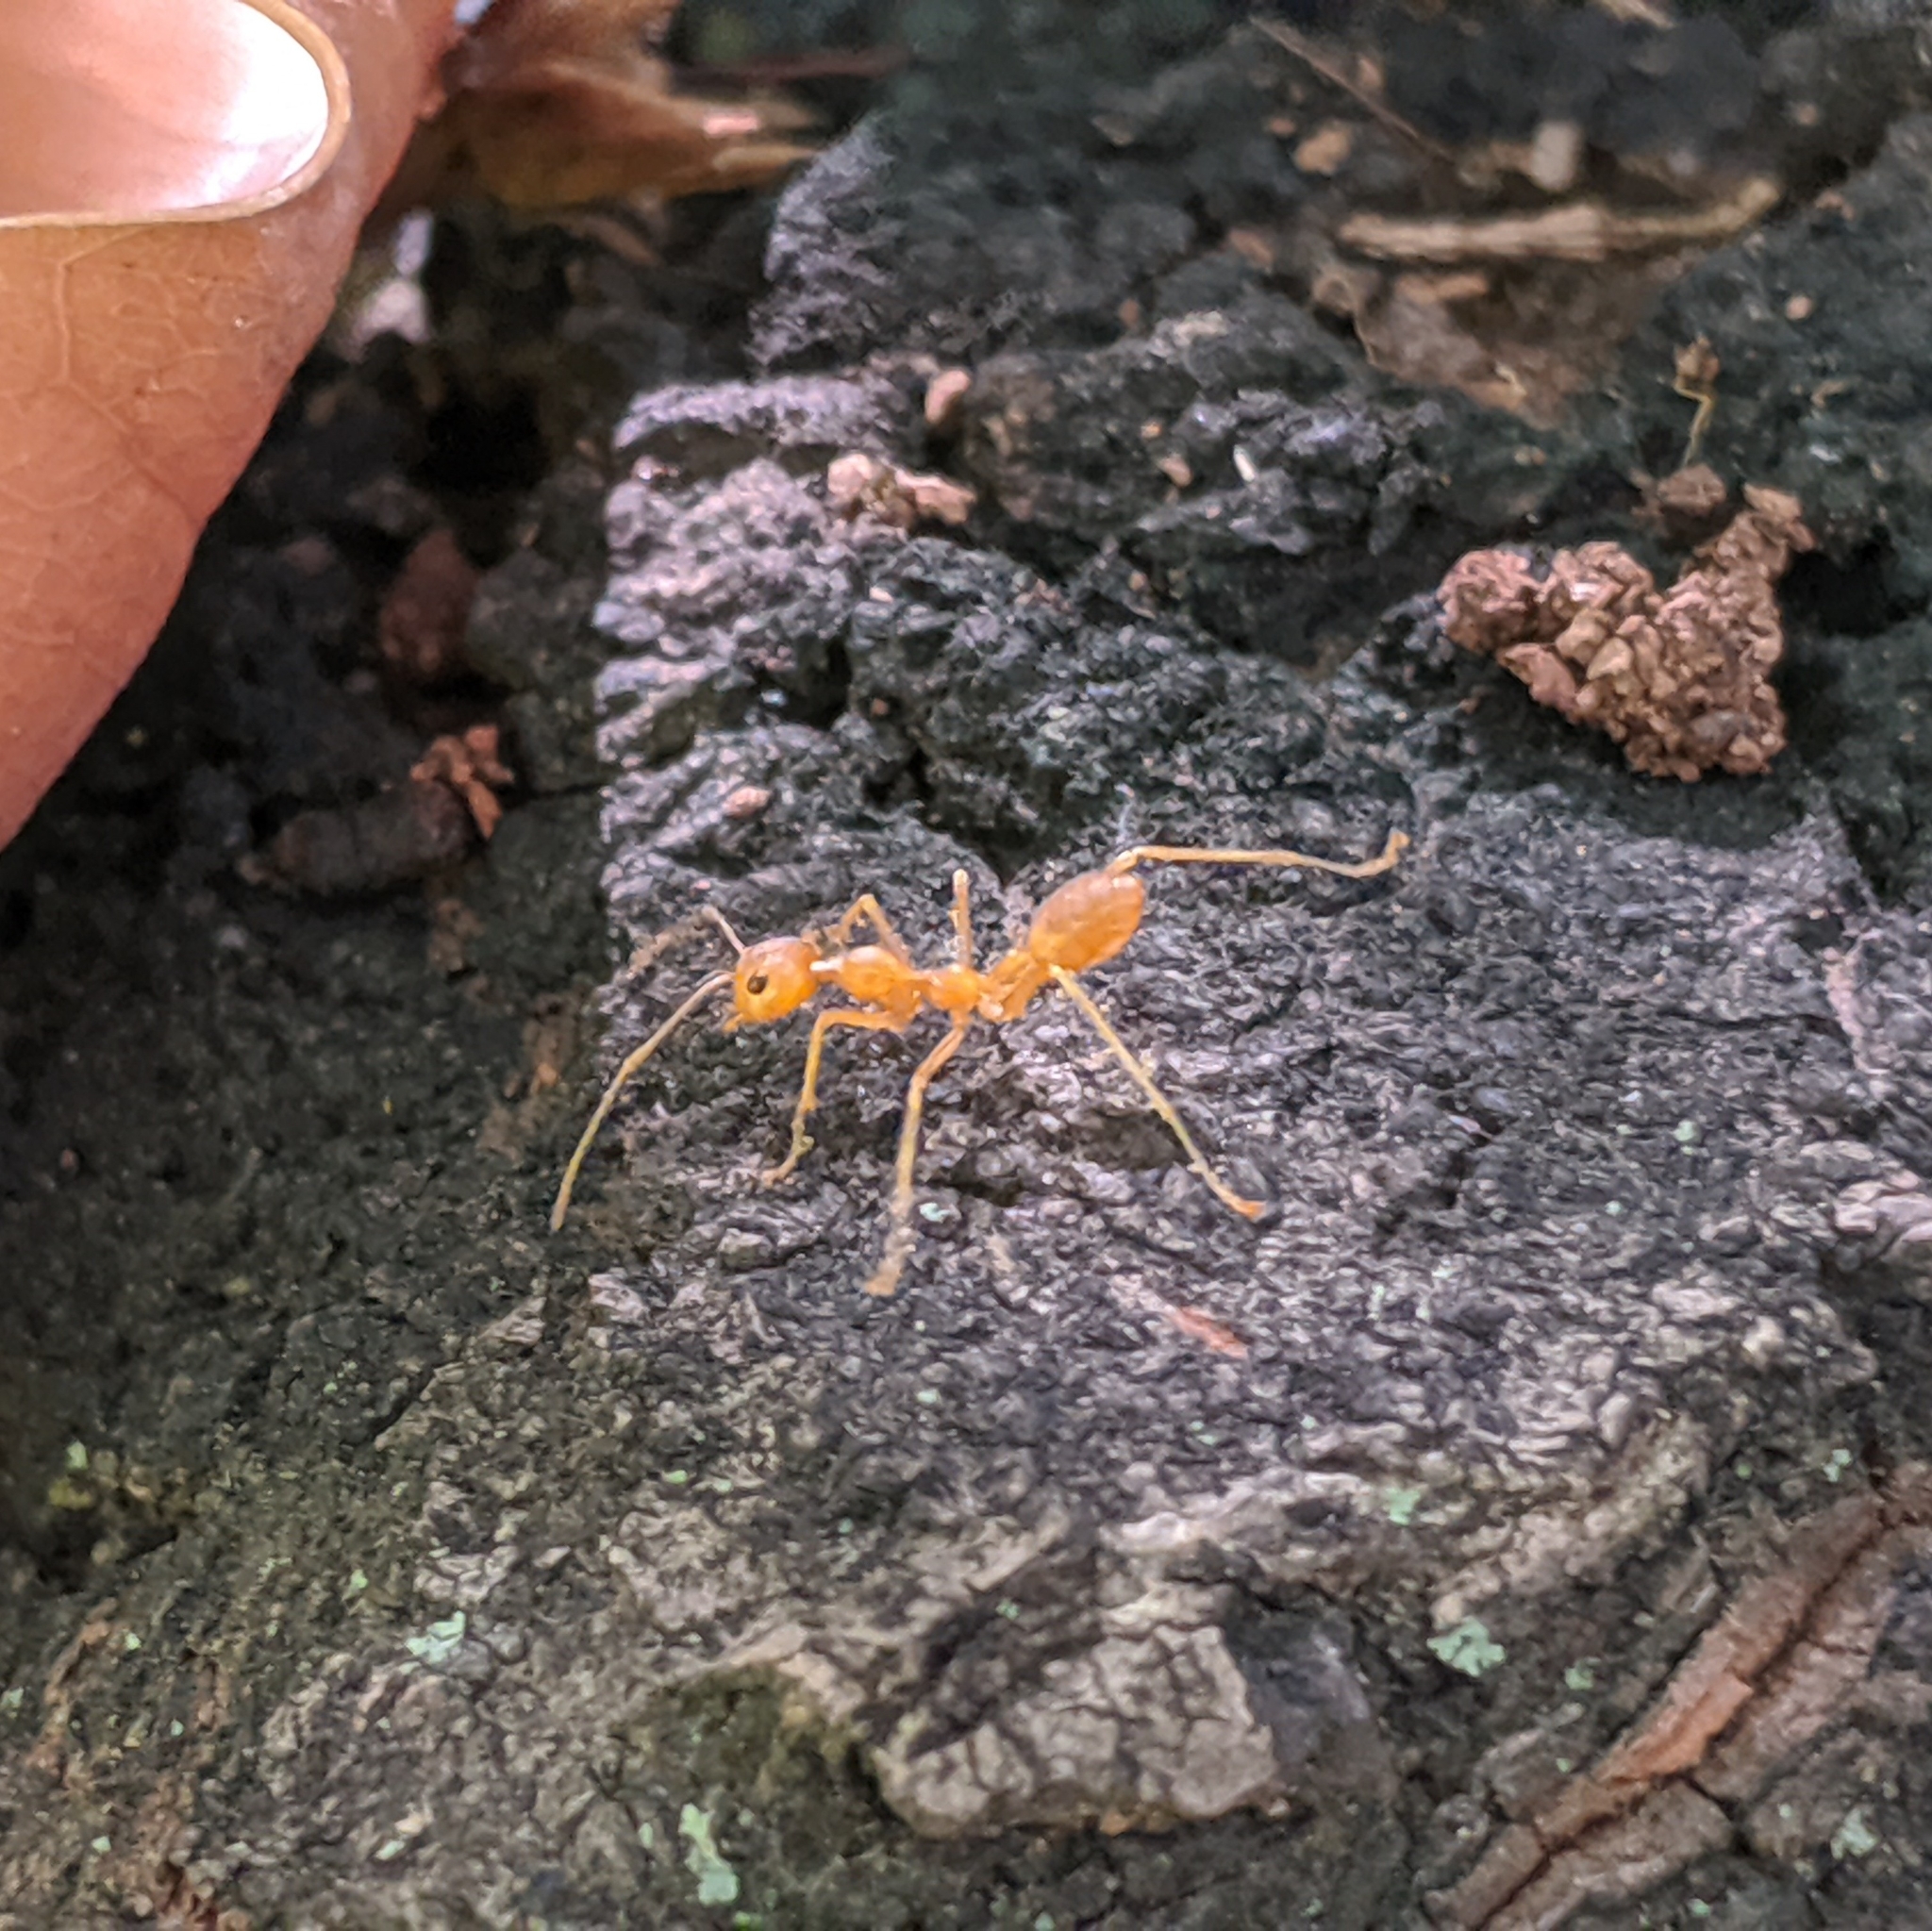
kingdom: Animalia
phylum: Arthropoda
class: Insecta
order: Hymenoptera
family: Formicidae
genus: Oecophylla
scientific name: Oecophylla smaragdina
